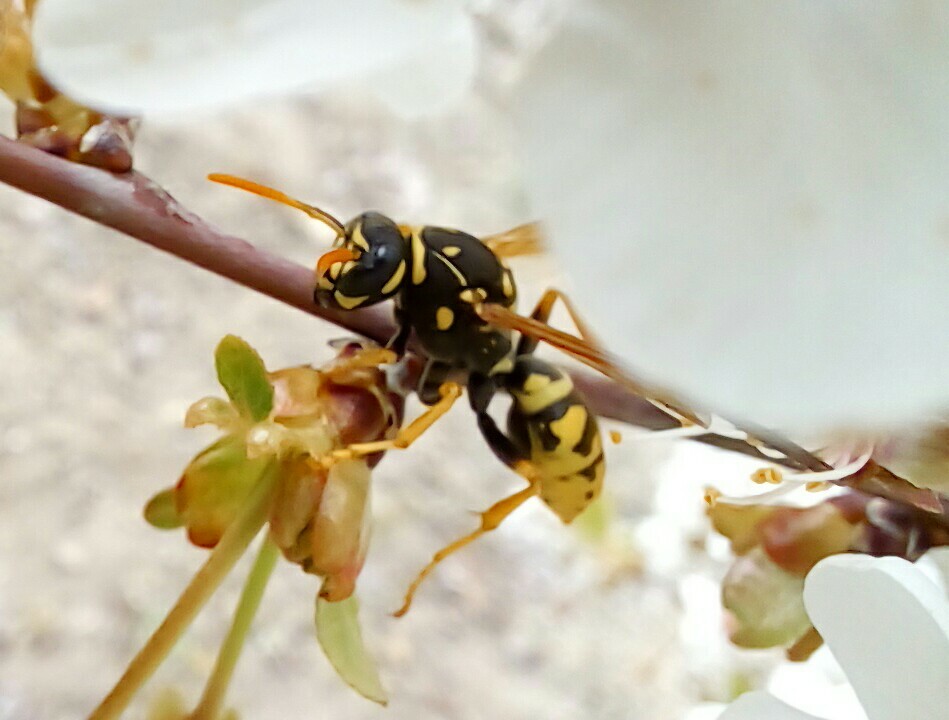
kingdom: Animalia
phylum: Arthropoda
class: Insecta
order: Hymenoptera
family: Eumenidae
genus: Polistes
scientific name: Polistes dominula
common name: Paper wasp
